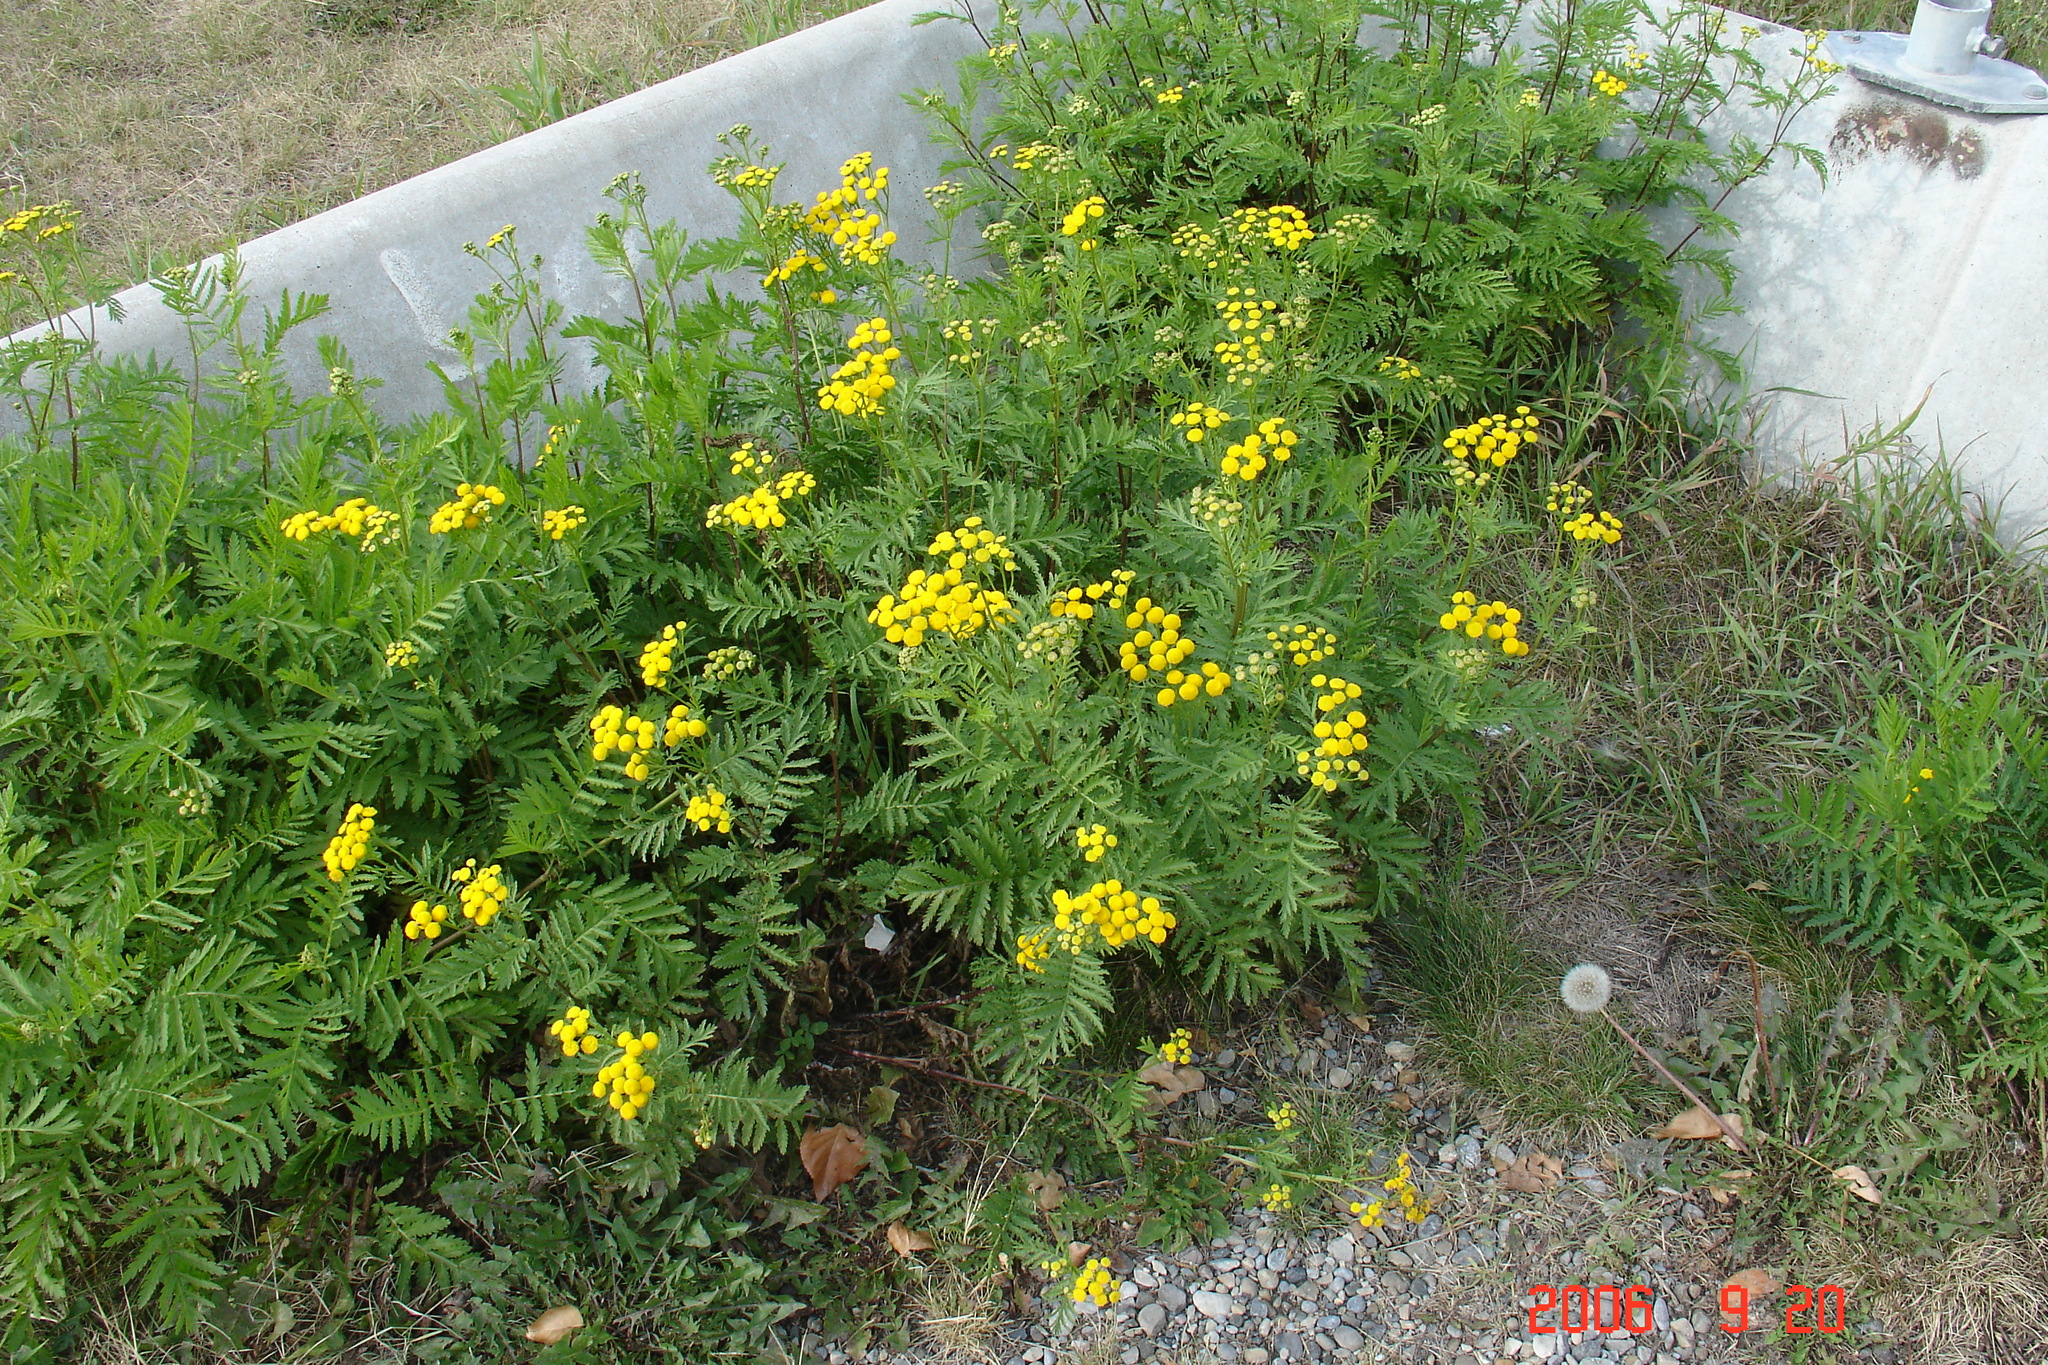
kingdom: Plantae
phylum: Tracheophyta
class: Magnoliopsida
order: Asterales
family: Asteraceae
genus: Tanacetum
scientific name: Tanacetum vulgare
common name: Common tansy
